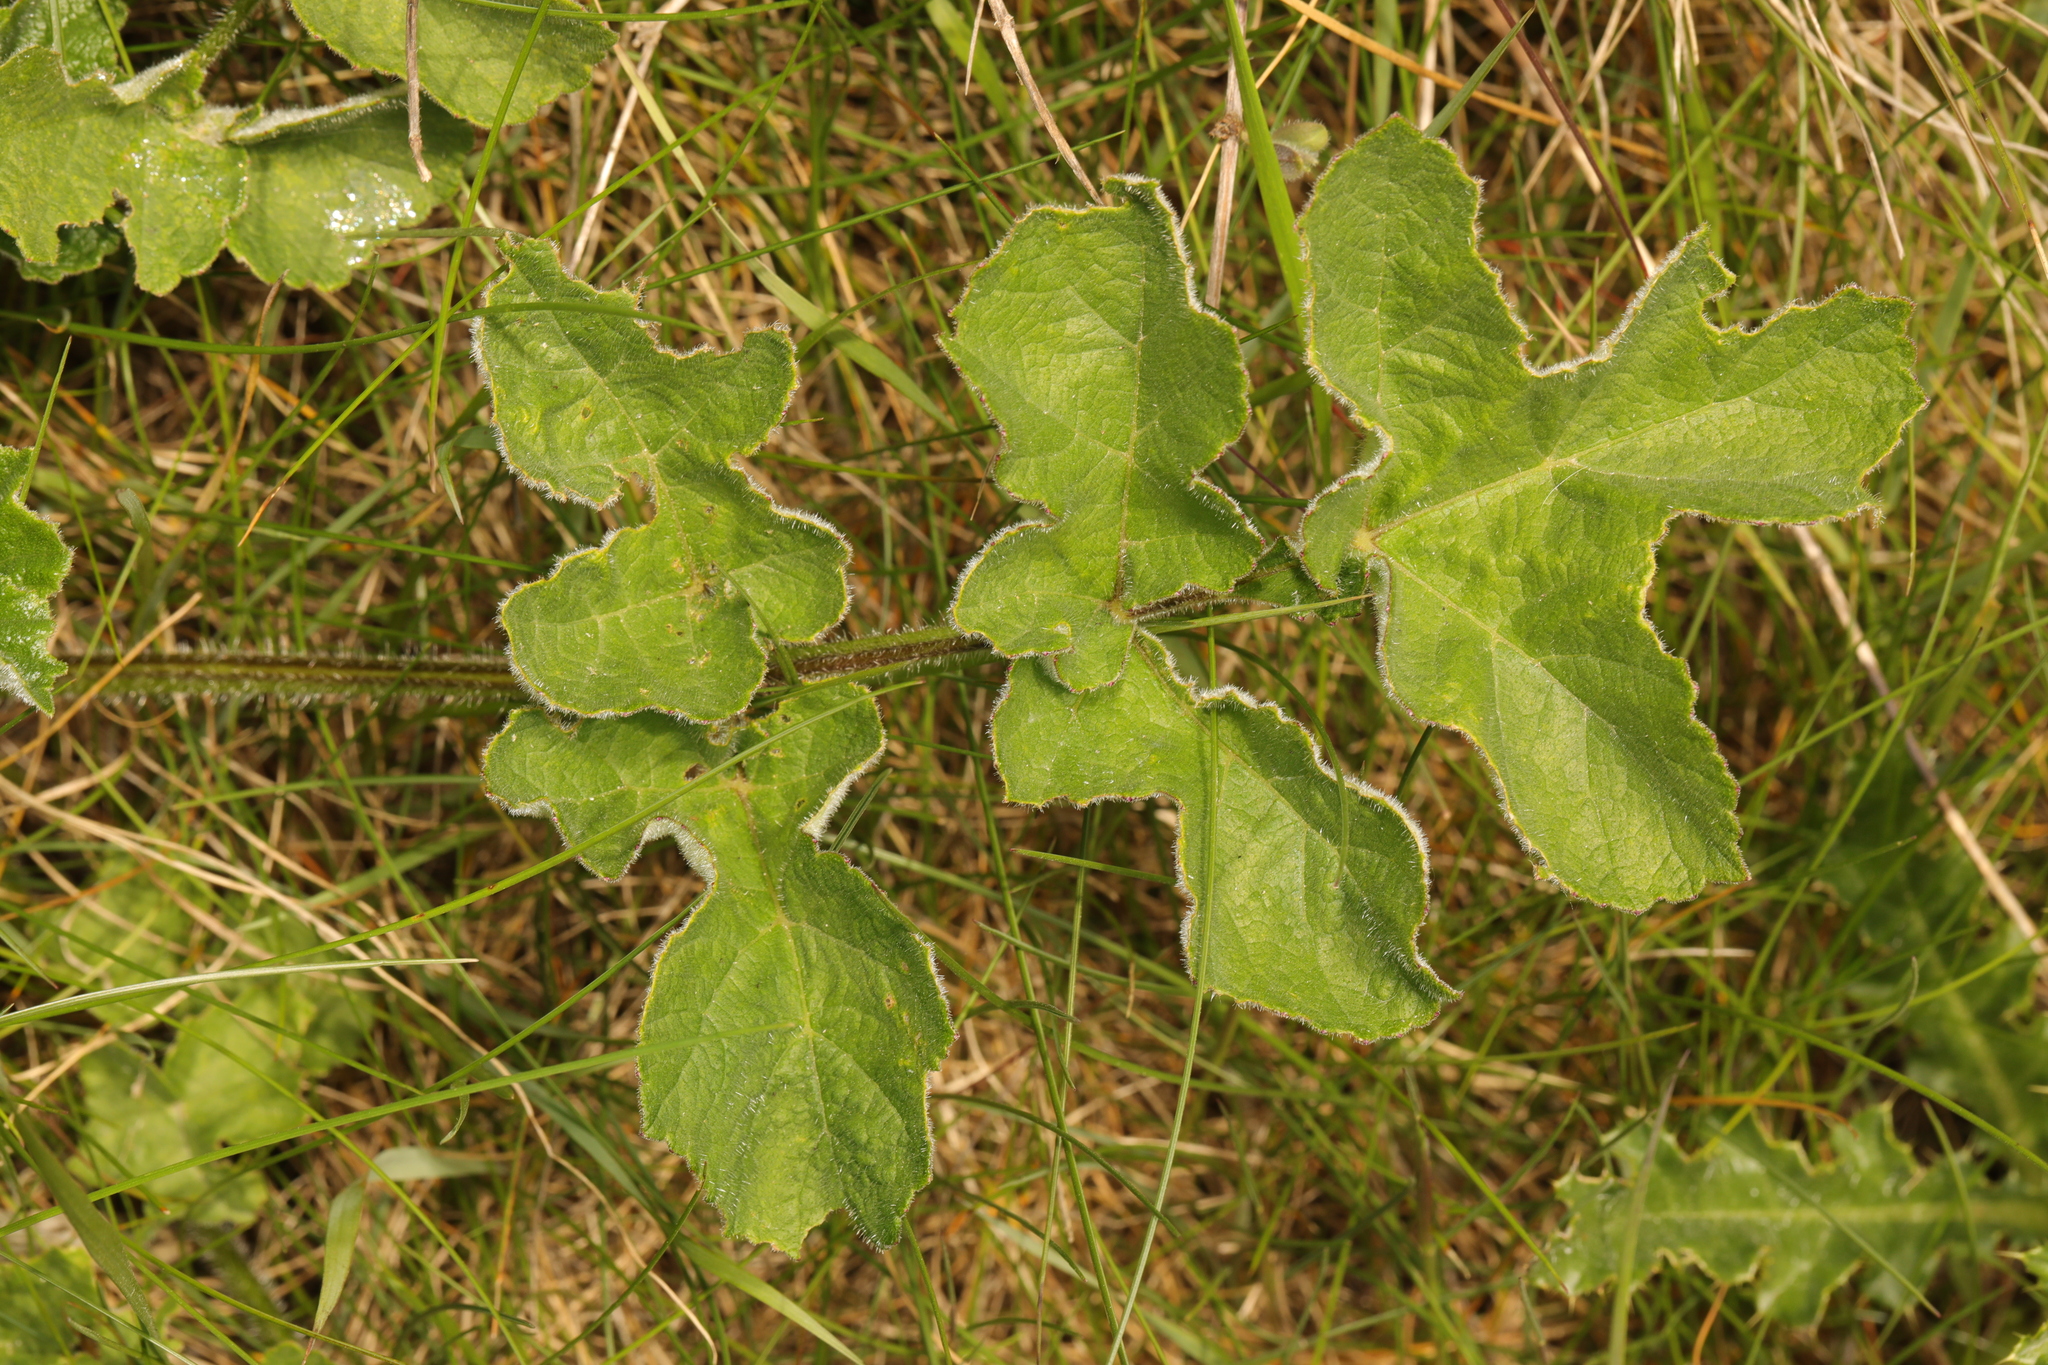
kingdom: Plantae
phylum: Tracheophyta
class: Magnoliopsida
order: Apiales
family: Apiaceae
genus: Heracleum
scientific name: Heracleum sphondylium
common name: Hogweed
